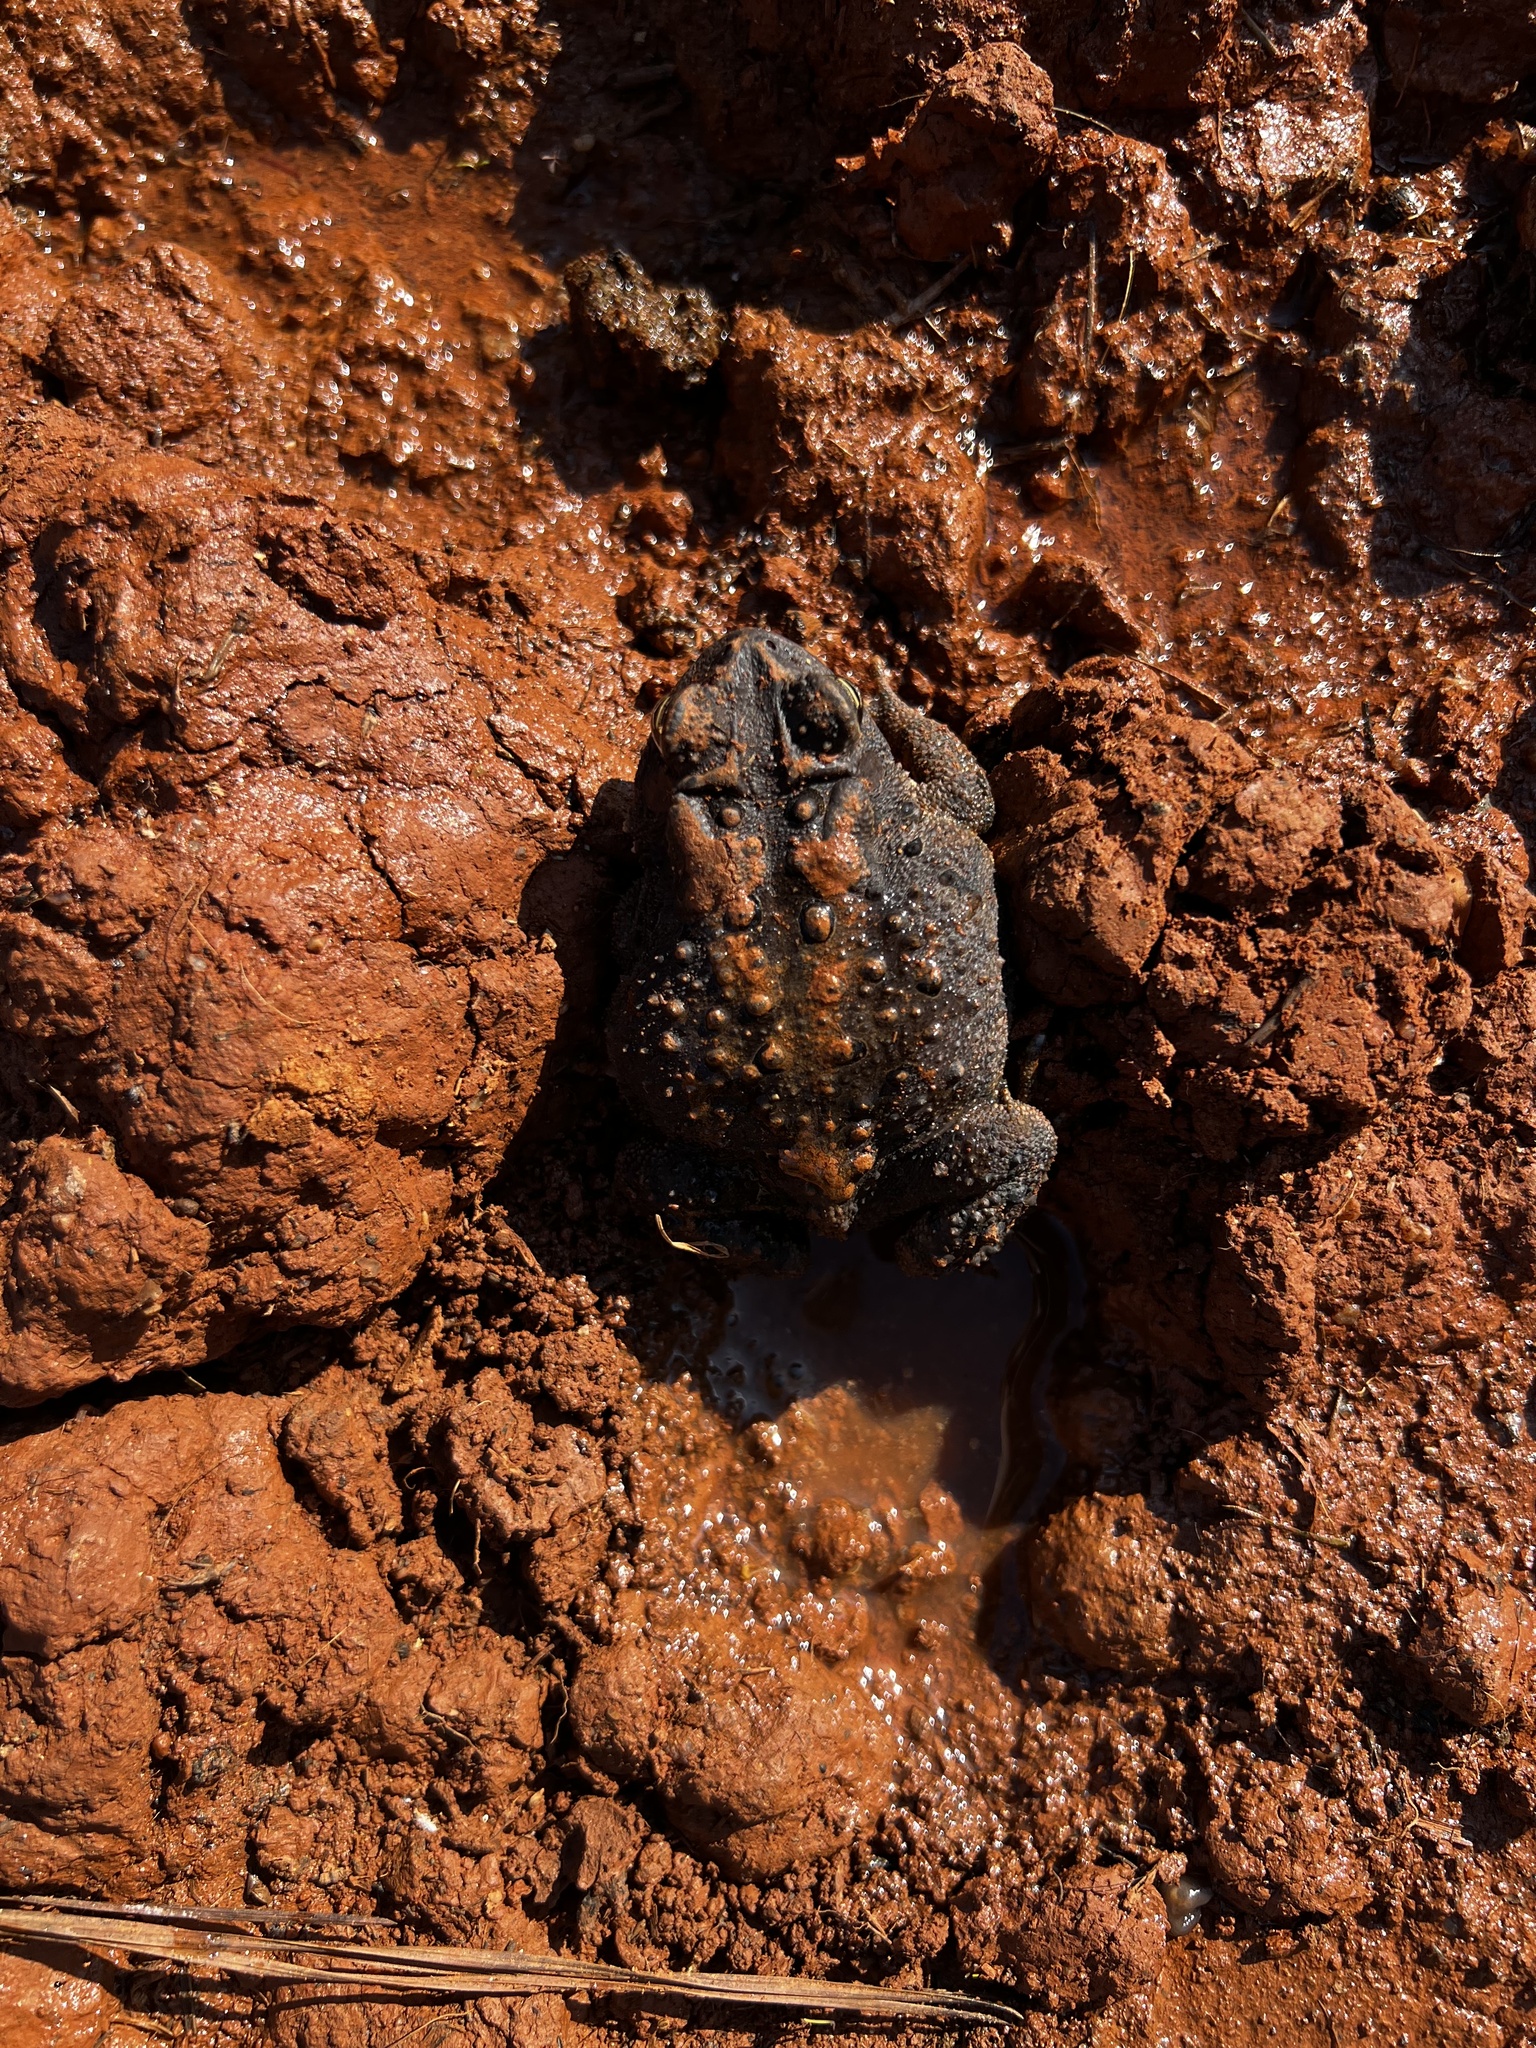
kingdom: Animalia
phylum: Chordata
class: Amphibia
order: Anura
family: Bufonidae
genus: Anaxyrus
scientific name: Anaxyrus americanus
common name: American toad
